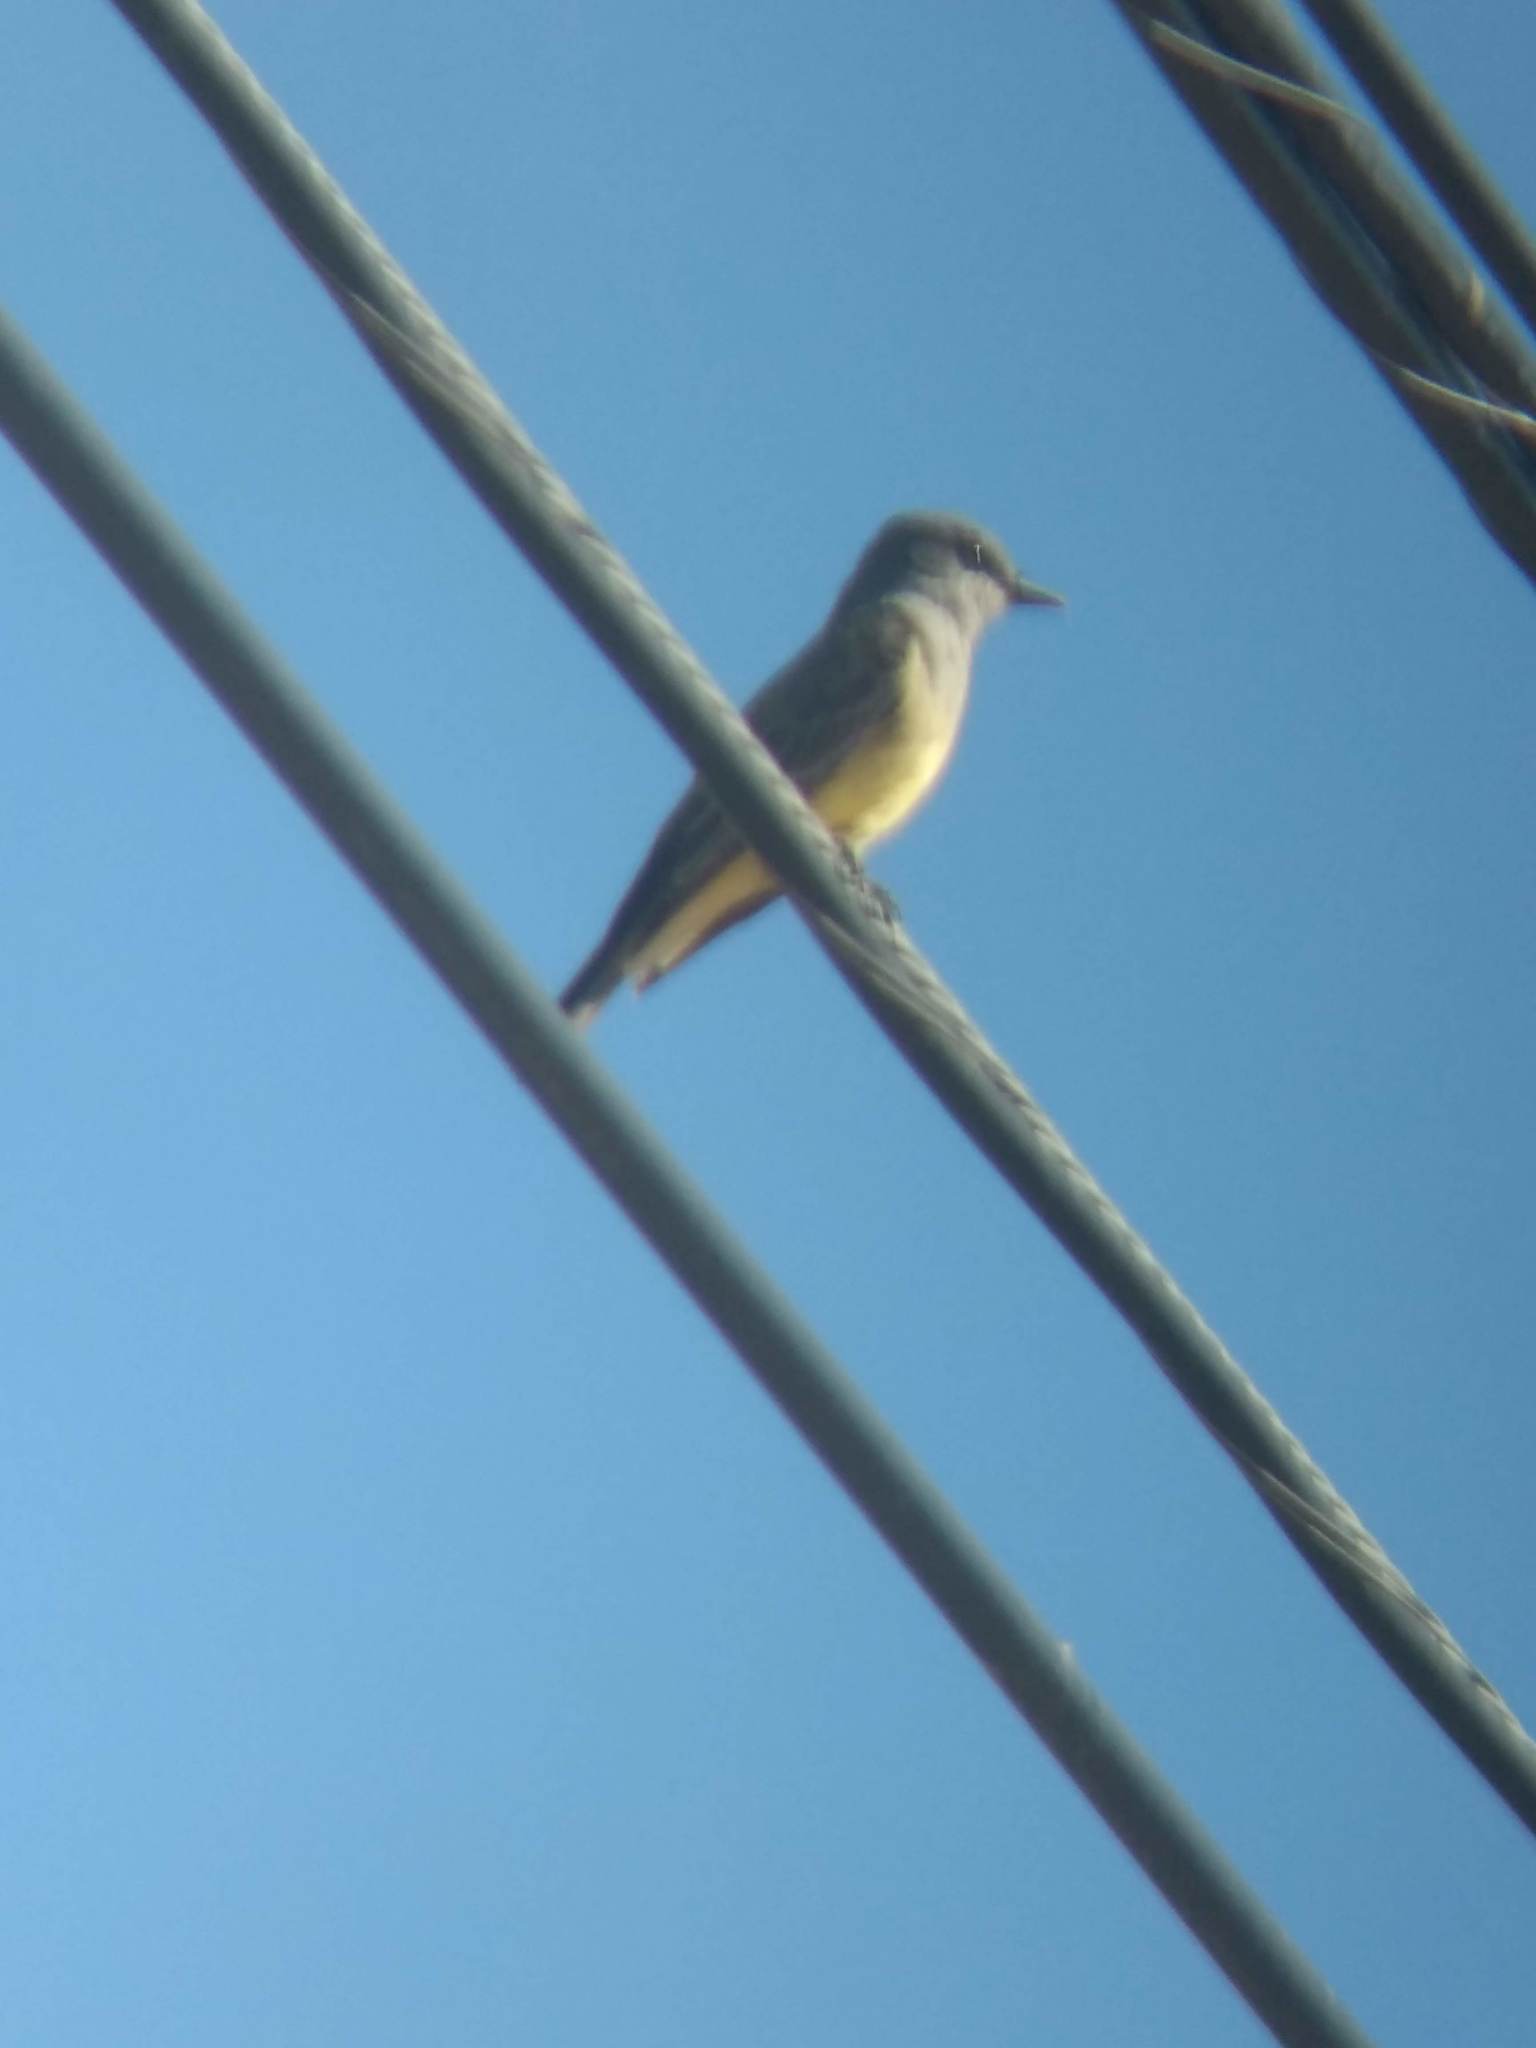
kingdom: Animalia
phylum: Chordata
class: Aves
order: Passeriformes
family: Tyrannidae
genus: Tyrannus
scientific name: Tyrannus vociferans
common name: Cassin's kingbird
